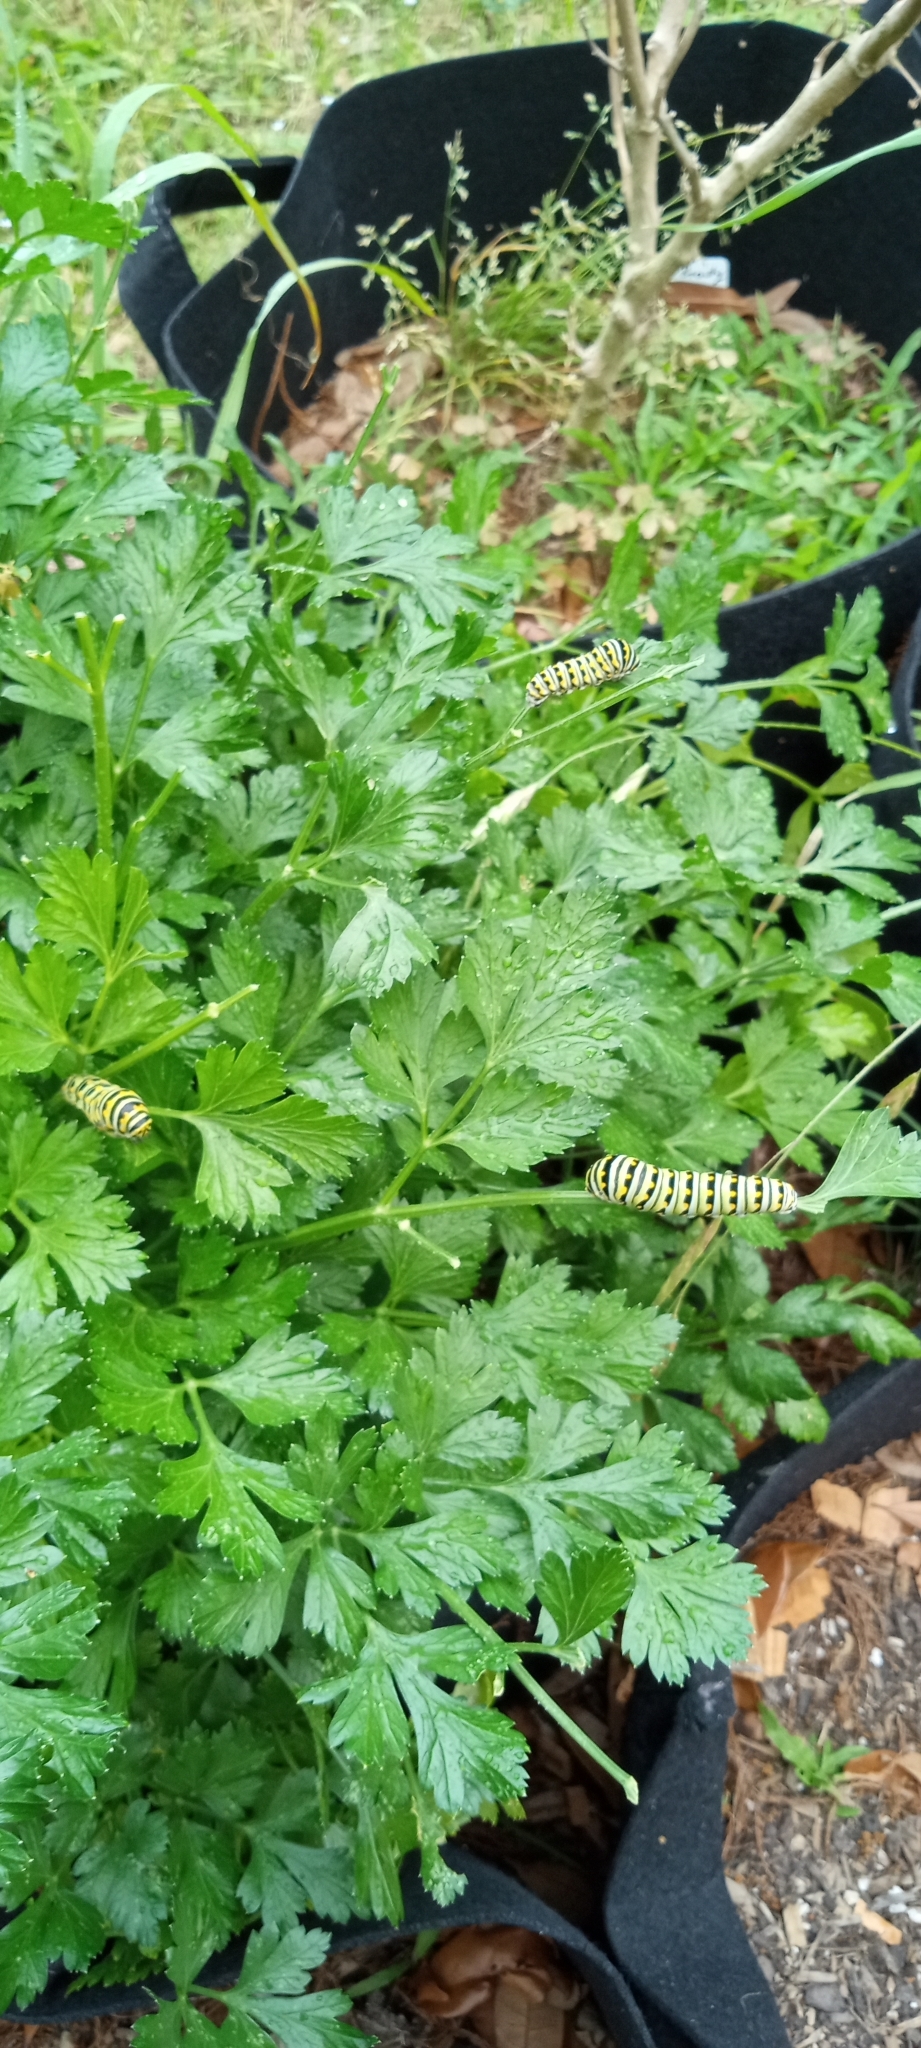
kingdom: Animalia
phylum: Arthropoda
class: Insecta
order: Lepidoptera
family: Papilionidae
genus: Papilio
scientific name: Papilio polyxenes
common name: Black swallowtail
